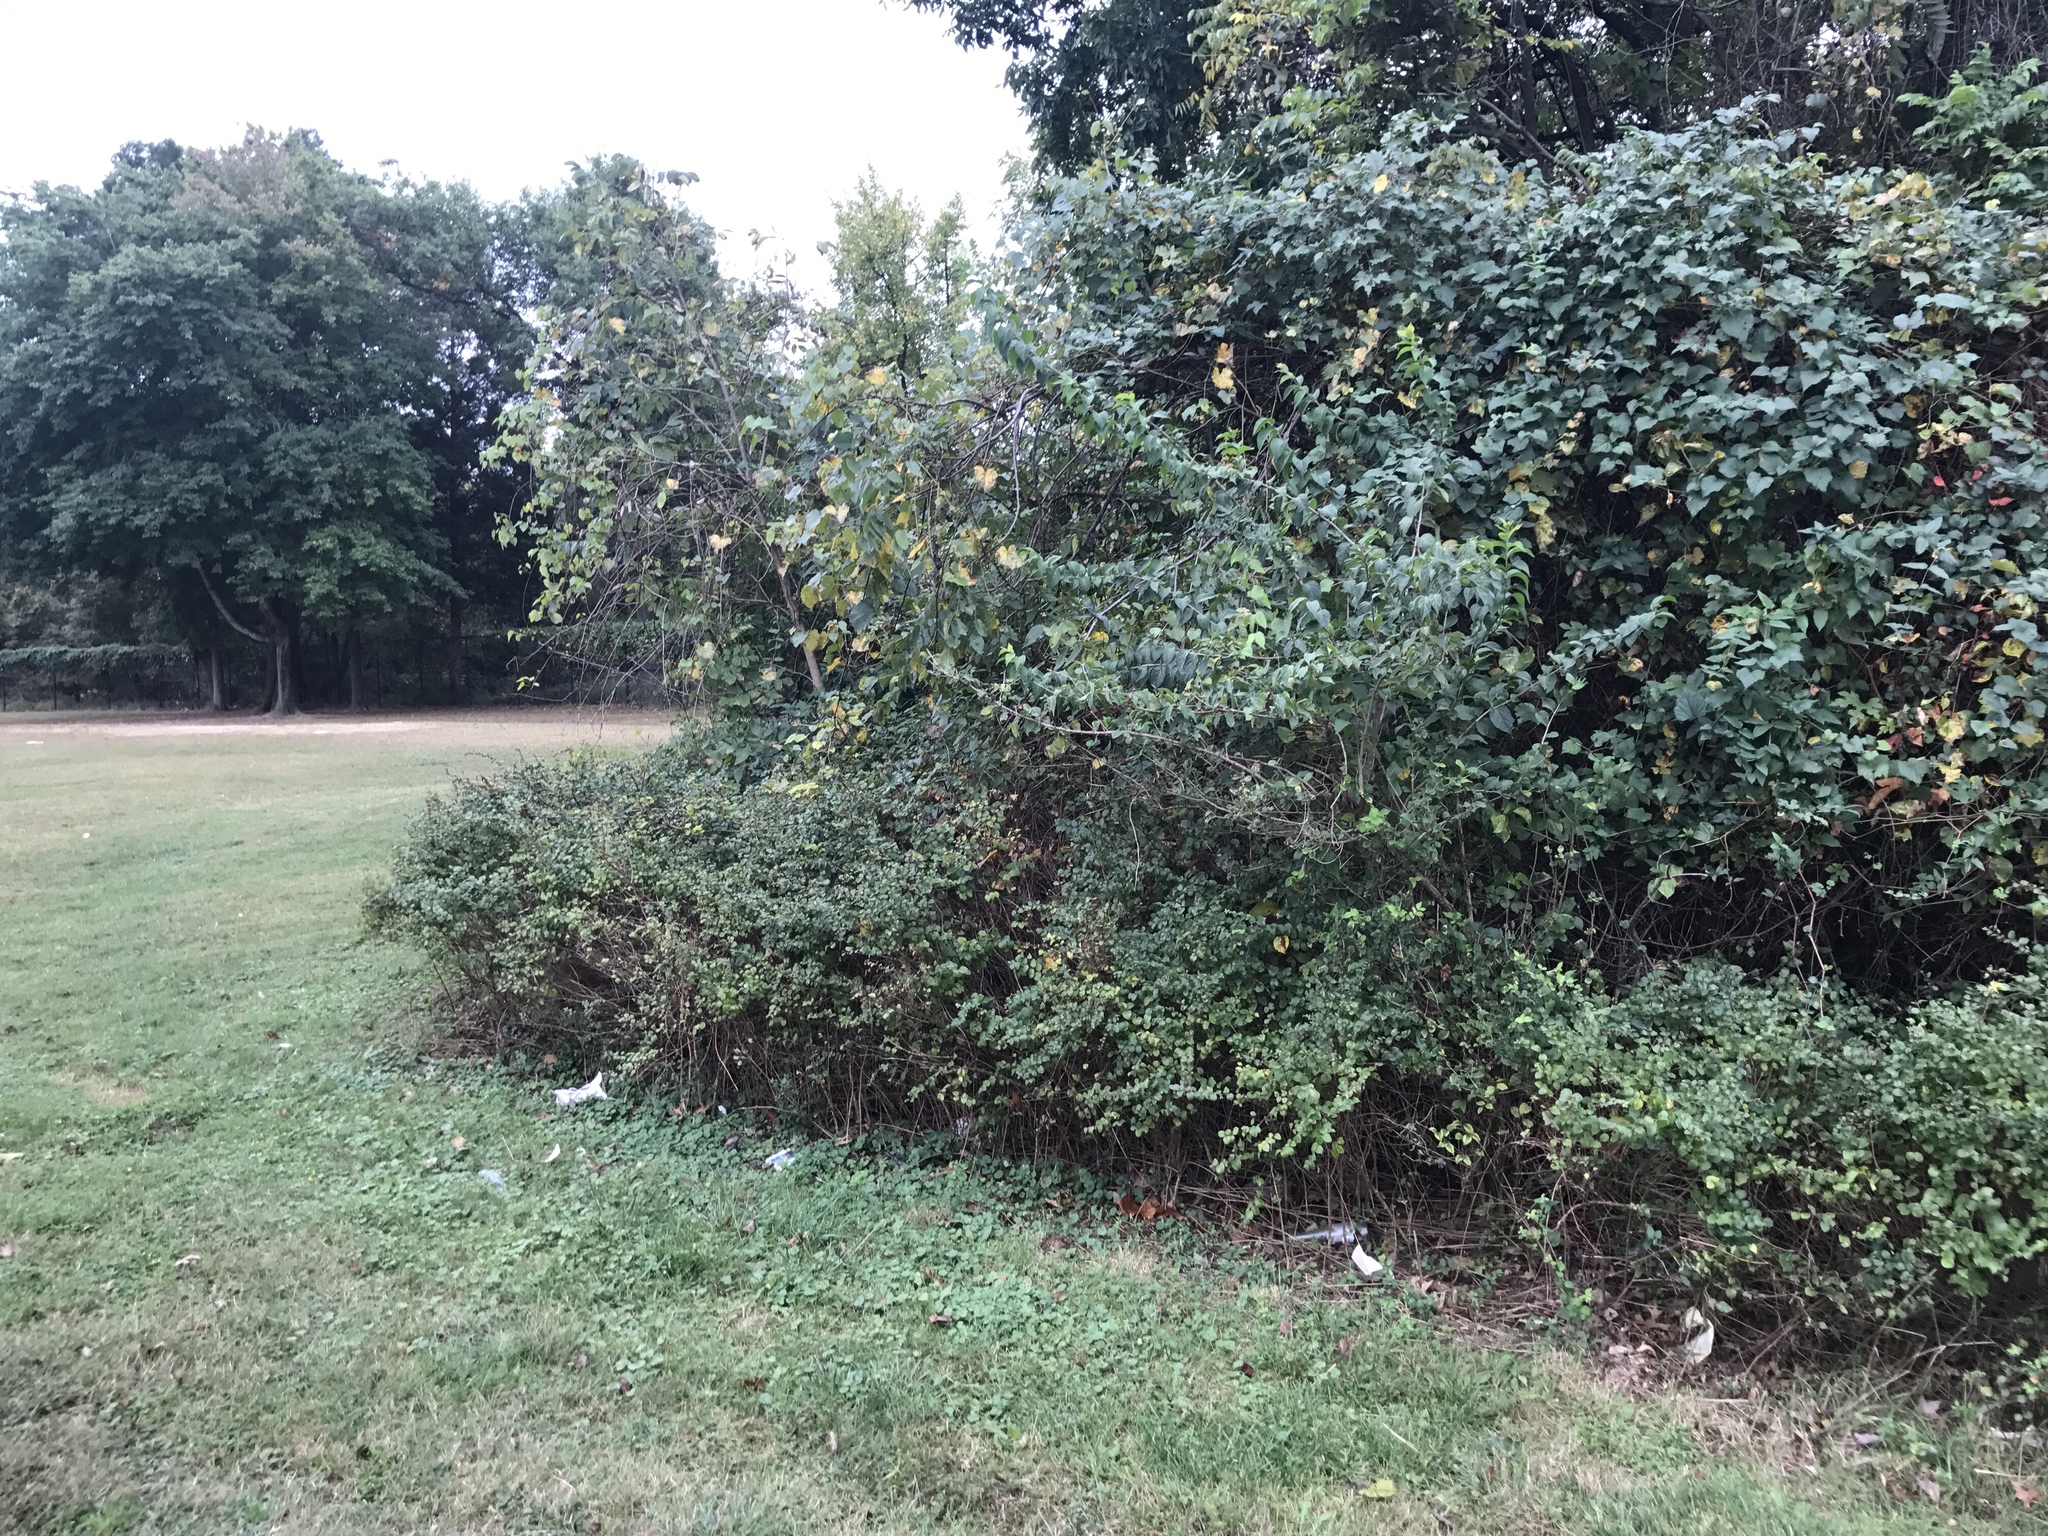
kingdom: Plantae
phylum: Tracheophyta
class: Magnoliopsida
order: Dipsacales
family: Caprifoliaceae
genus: Symphoricarpos
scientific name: Symphoricarpos orbiculatus
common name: Coralberry
